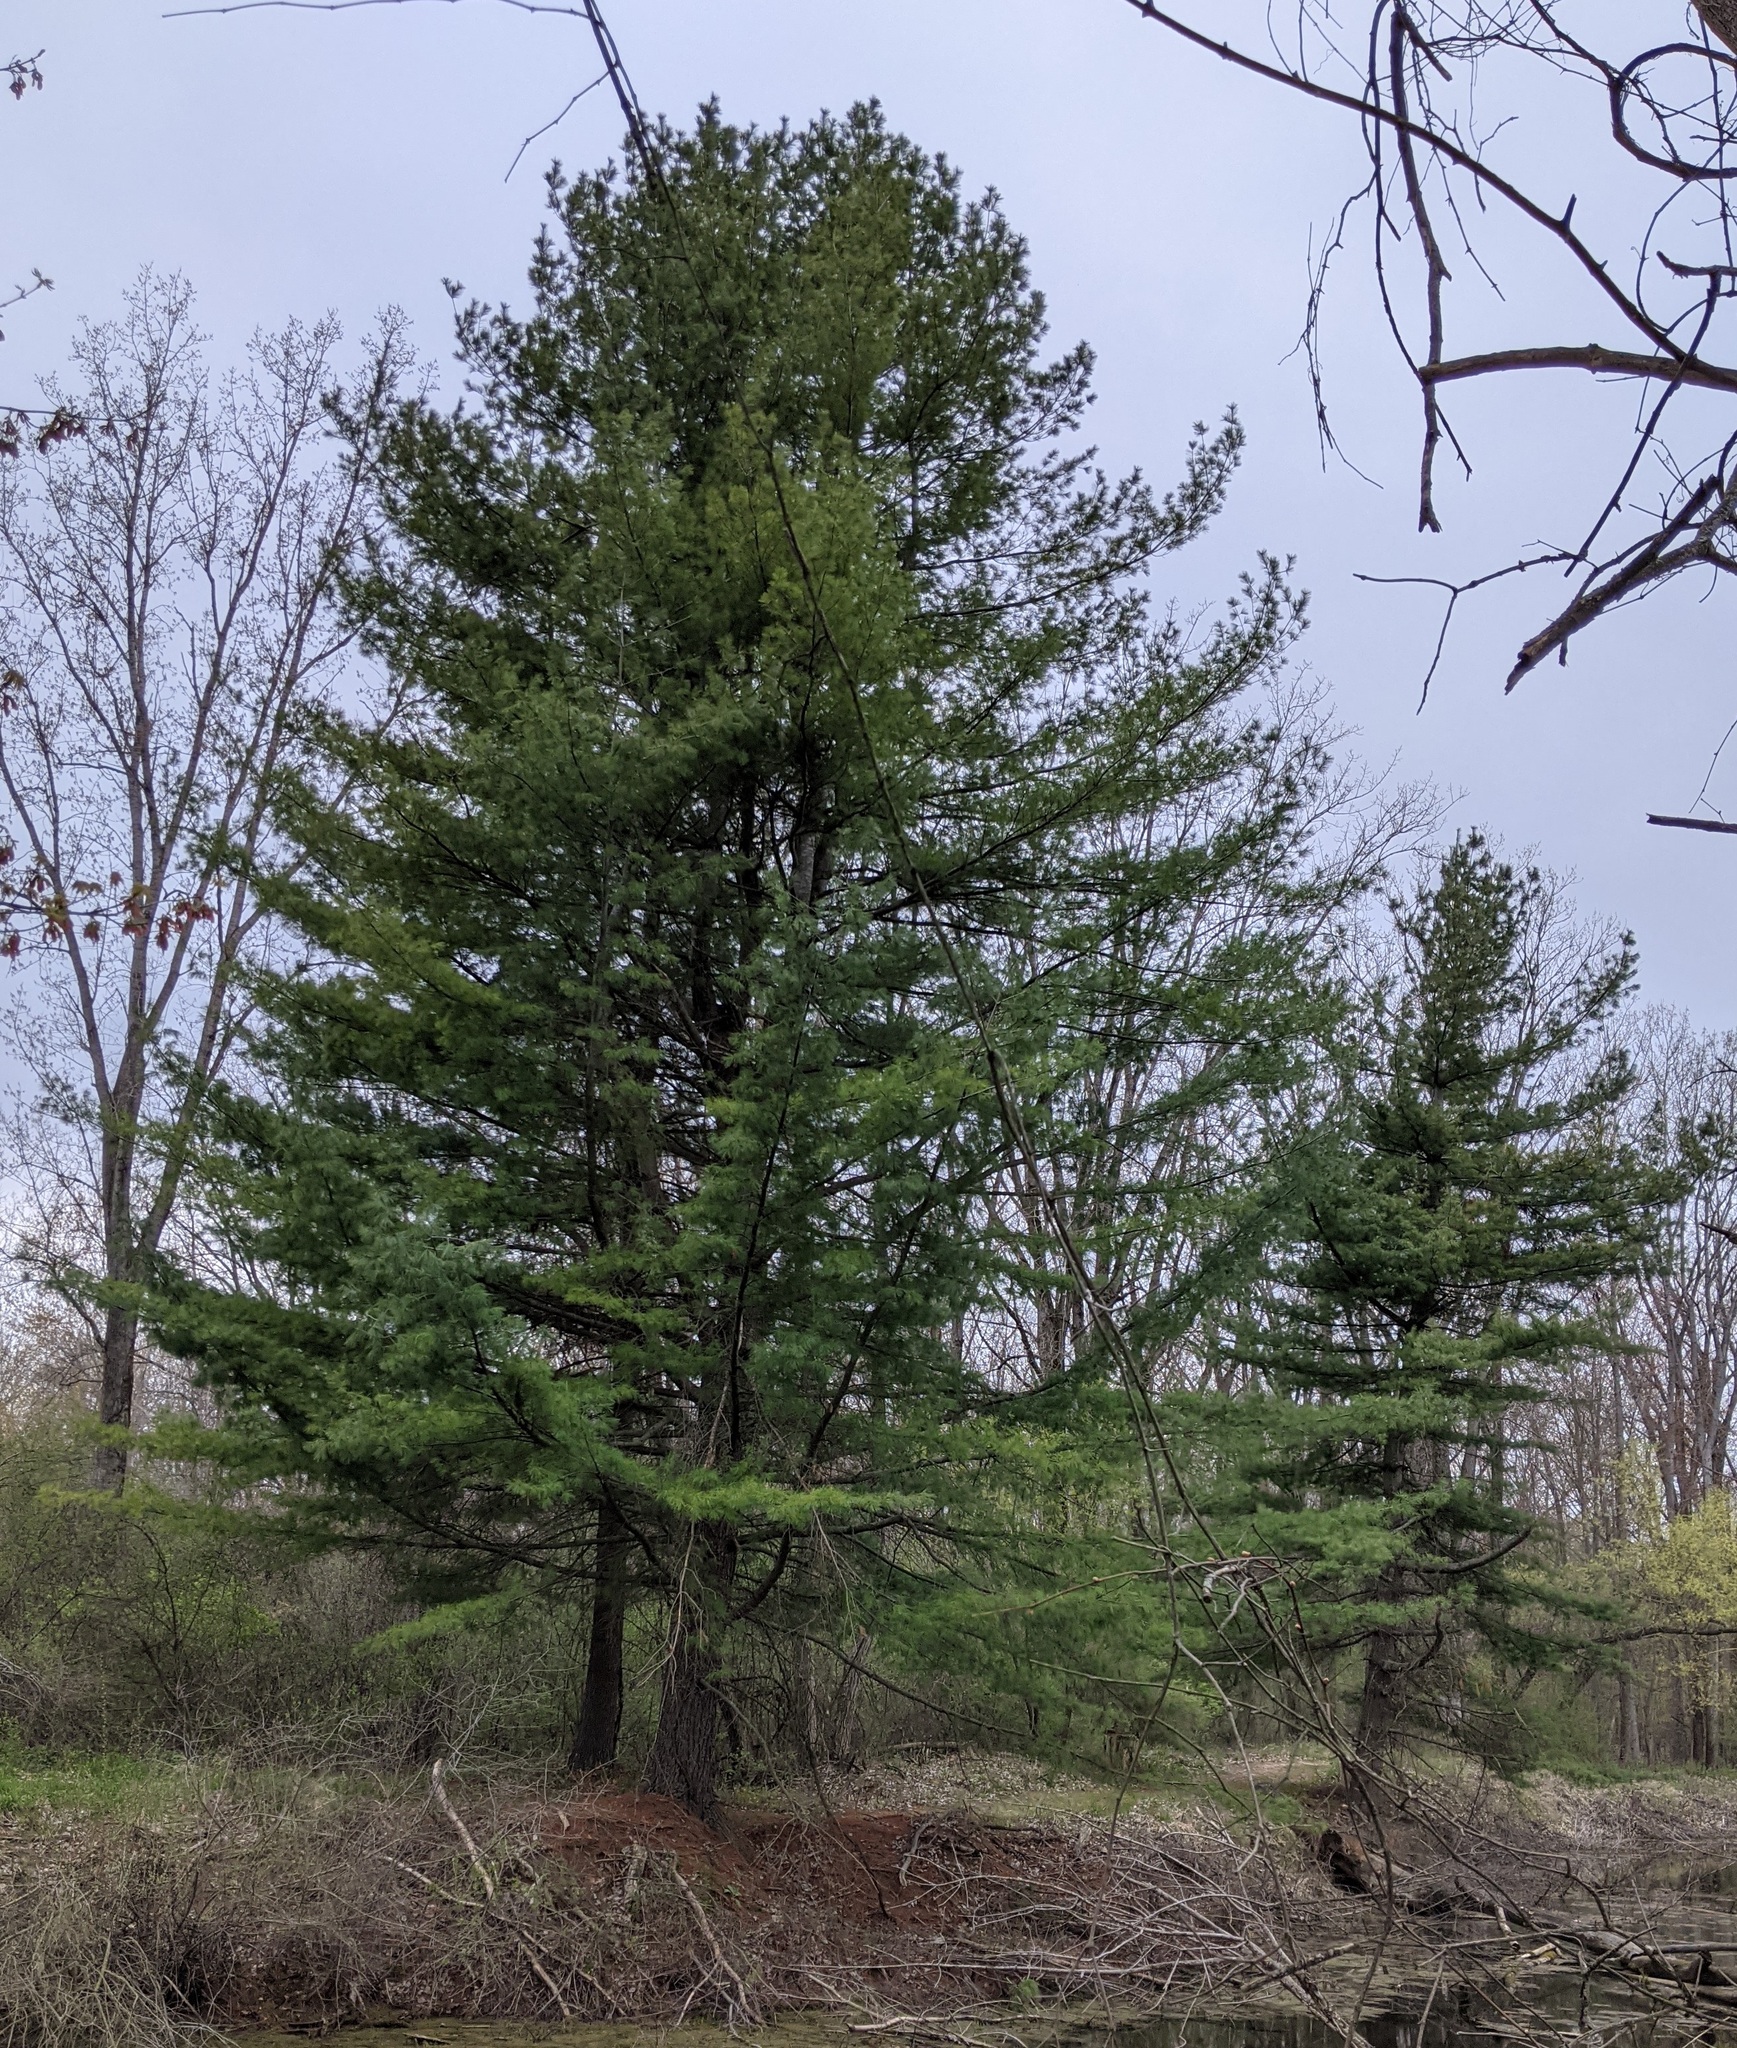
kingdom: Plantae
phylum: Tracheophyta
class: Pinopsida
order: Pinales
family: Pinaceae
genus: Pinus
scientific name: Pinus strobus
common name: Weymouth pine
